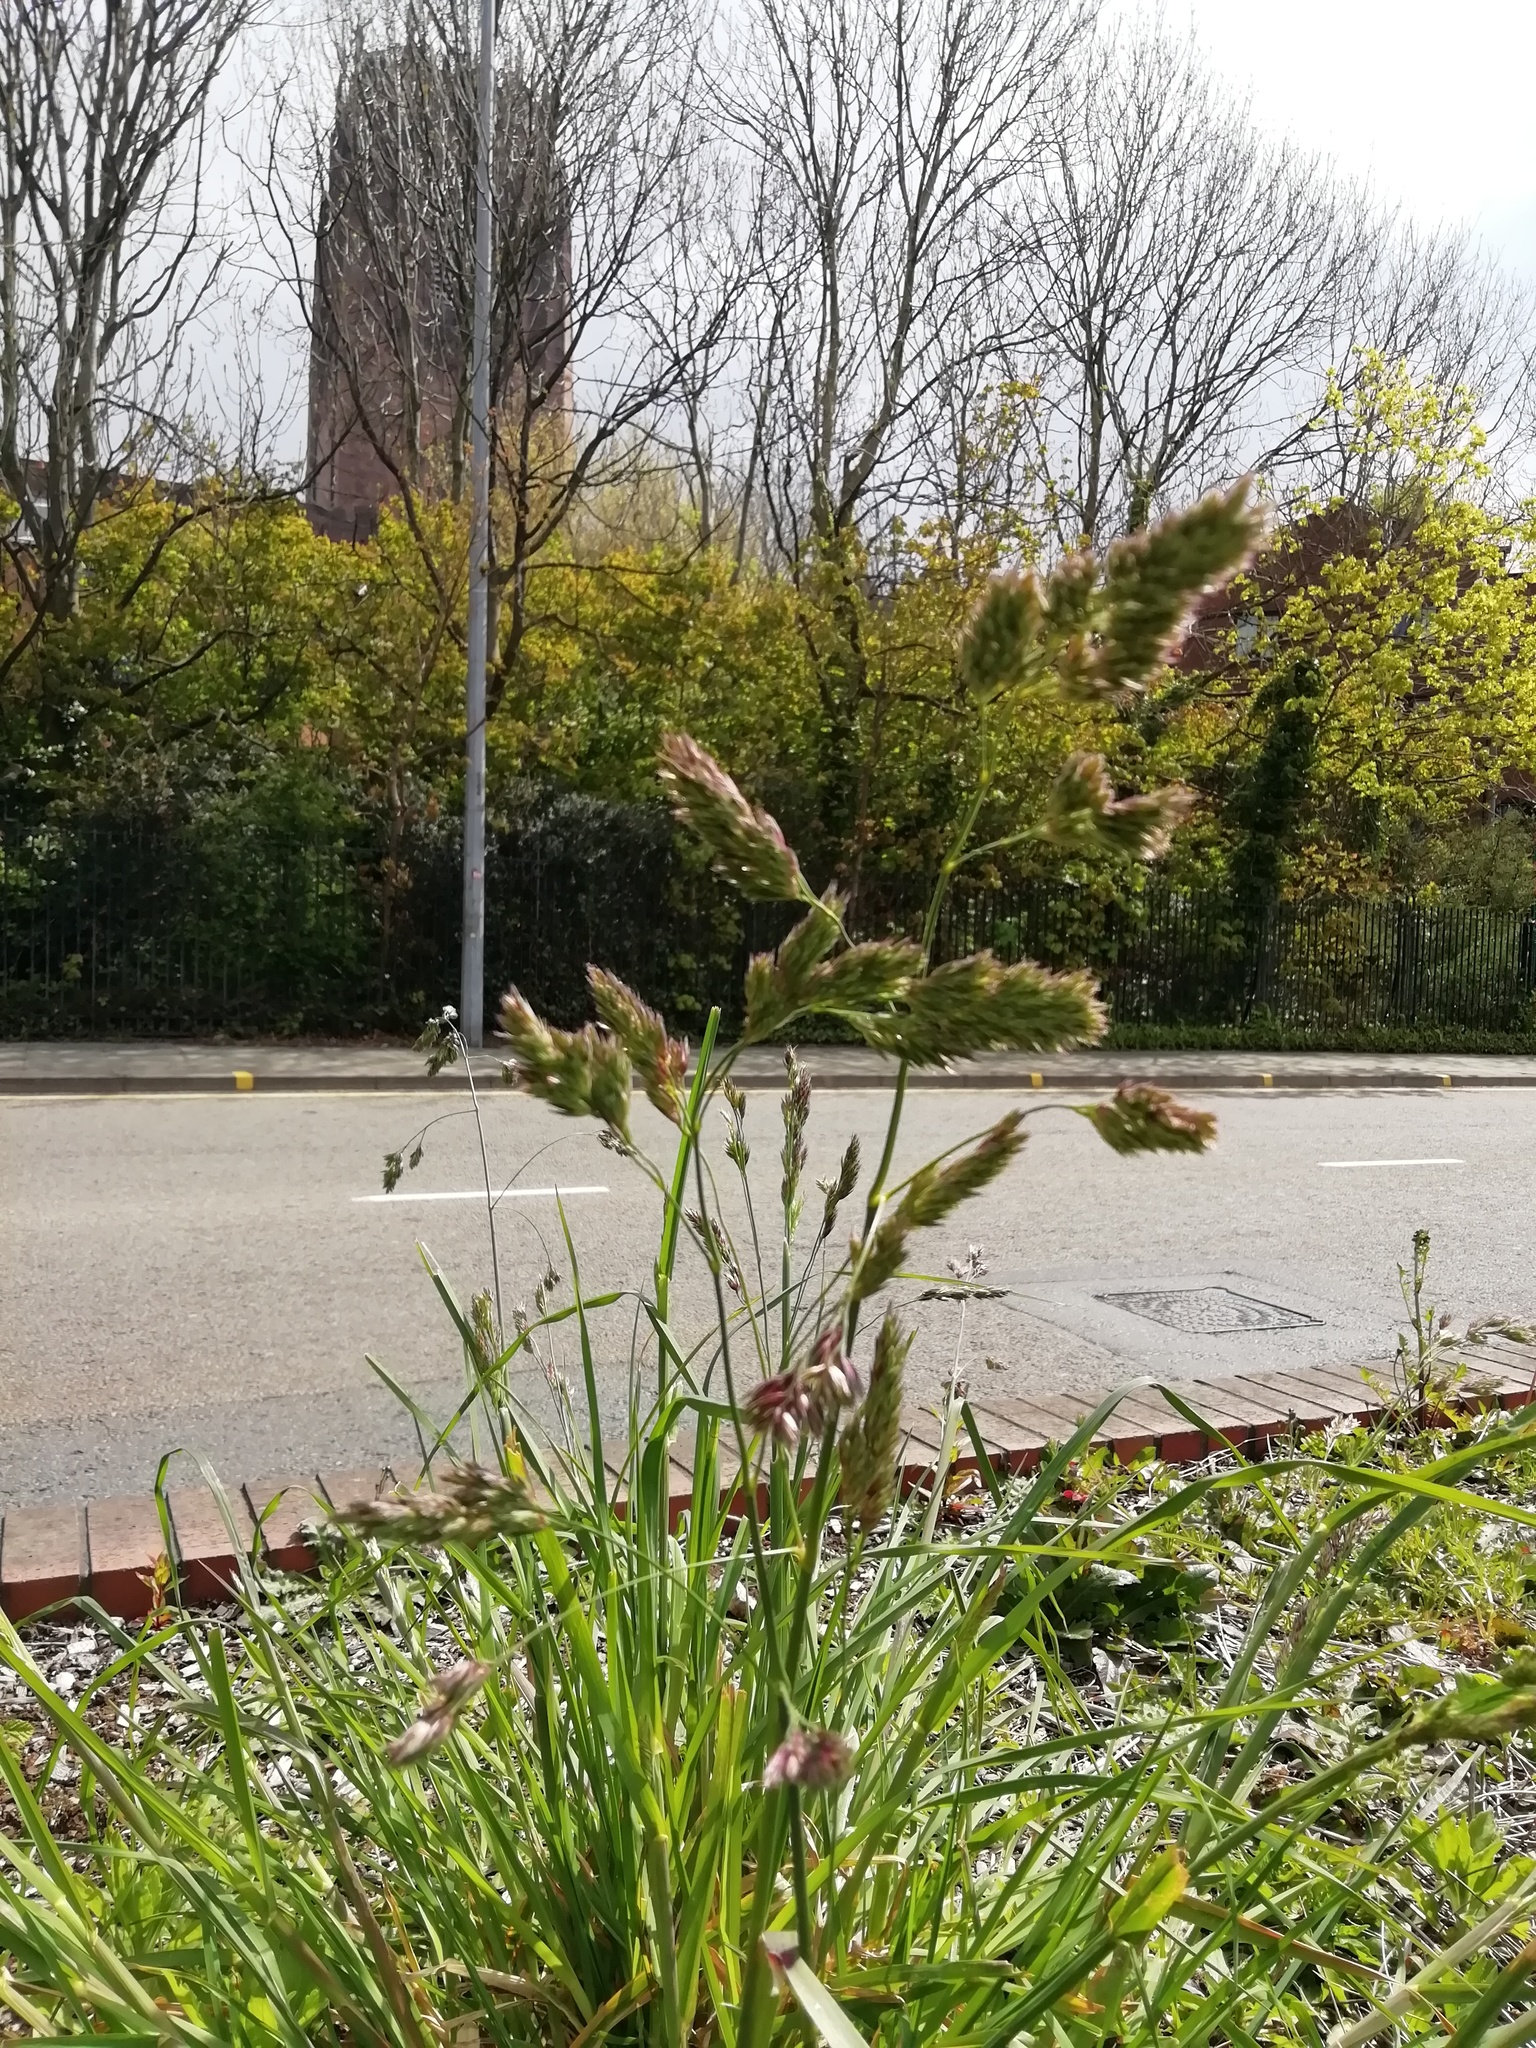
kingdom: Plantae
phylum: Tracheophyta
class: Liliopsida
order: Poales
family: Poaceae
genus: Dactylis
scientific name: Dactylis glomerata
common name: Orchardgrass
